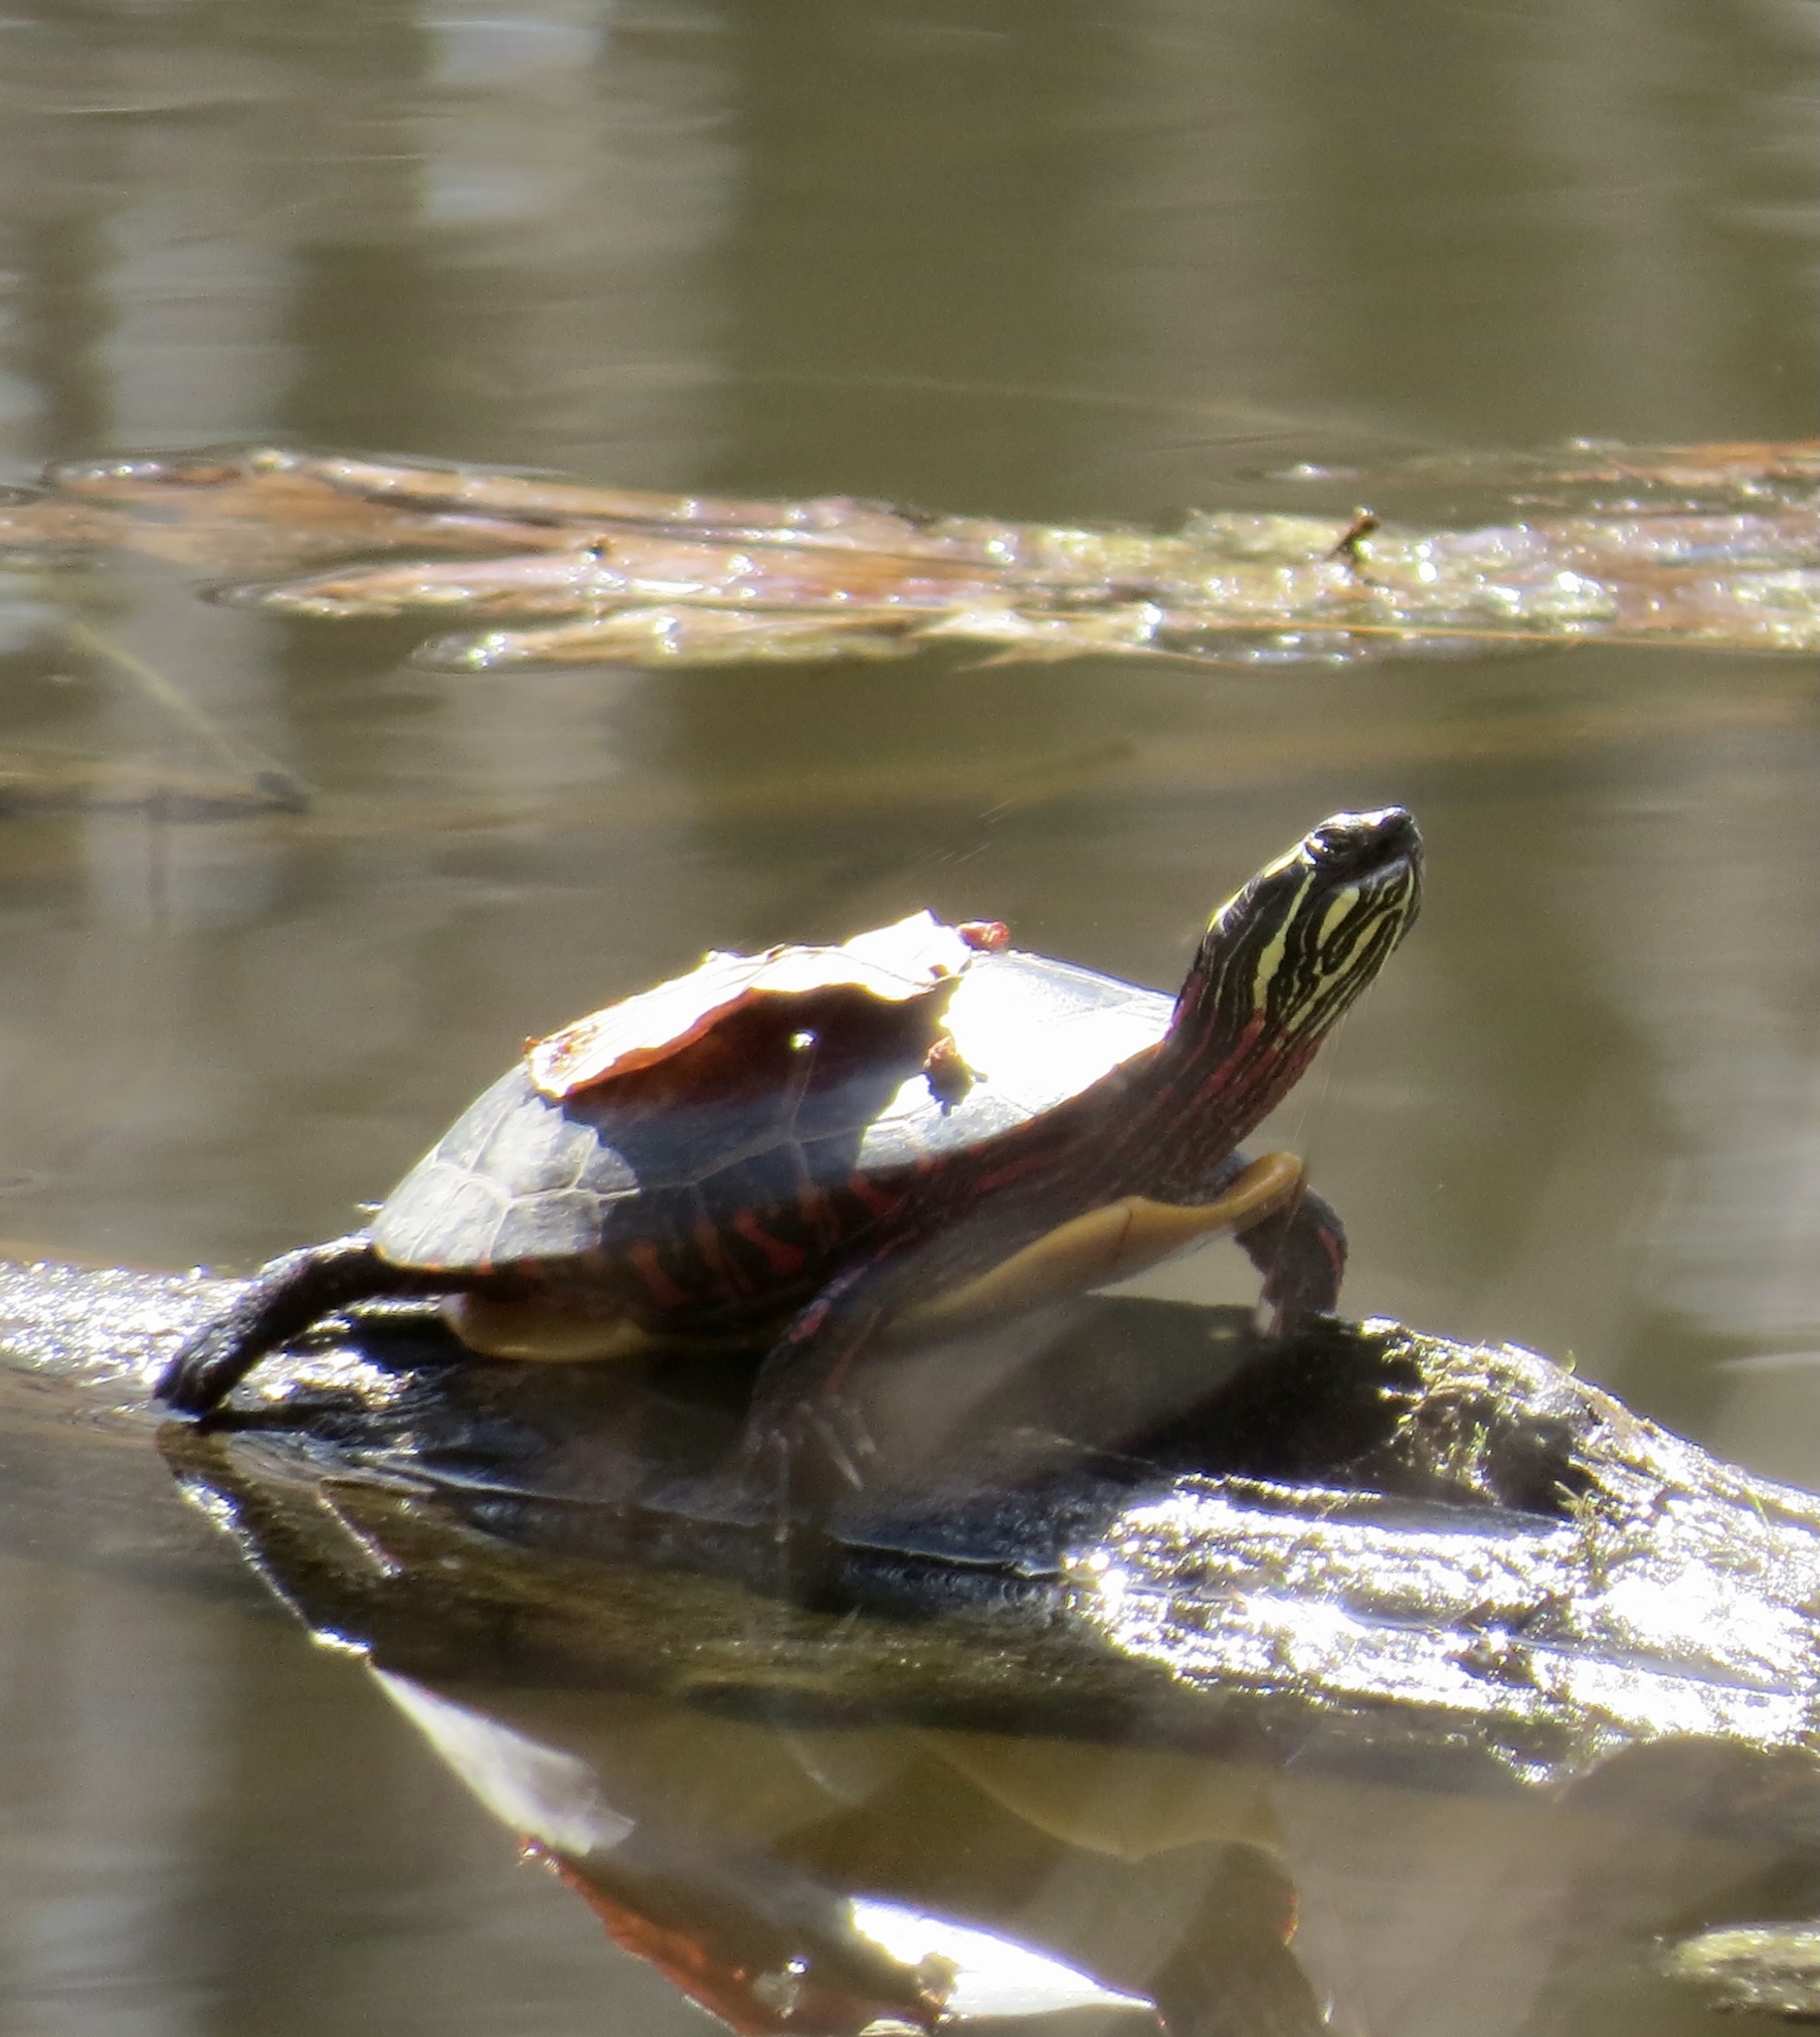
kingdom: Animalia
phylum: Chordata
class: Testudines
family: Emydidae
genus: Chrysemys
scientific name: Chrysemys picta
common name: Painted turtle
